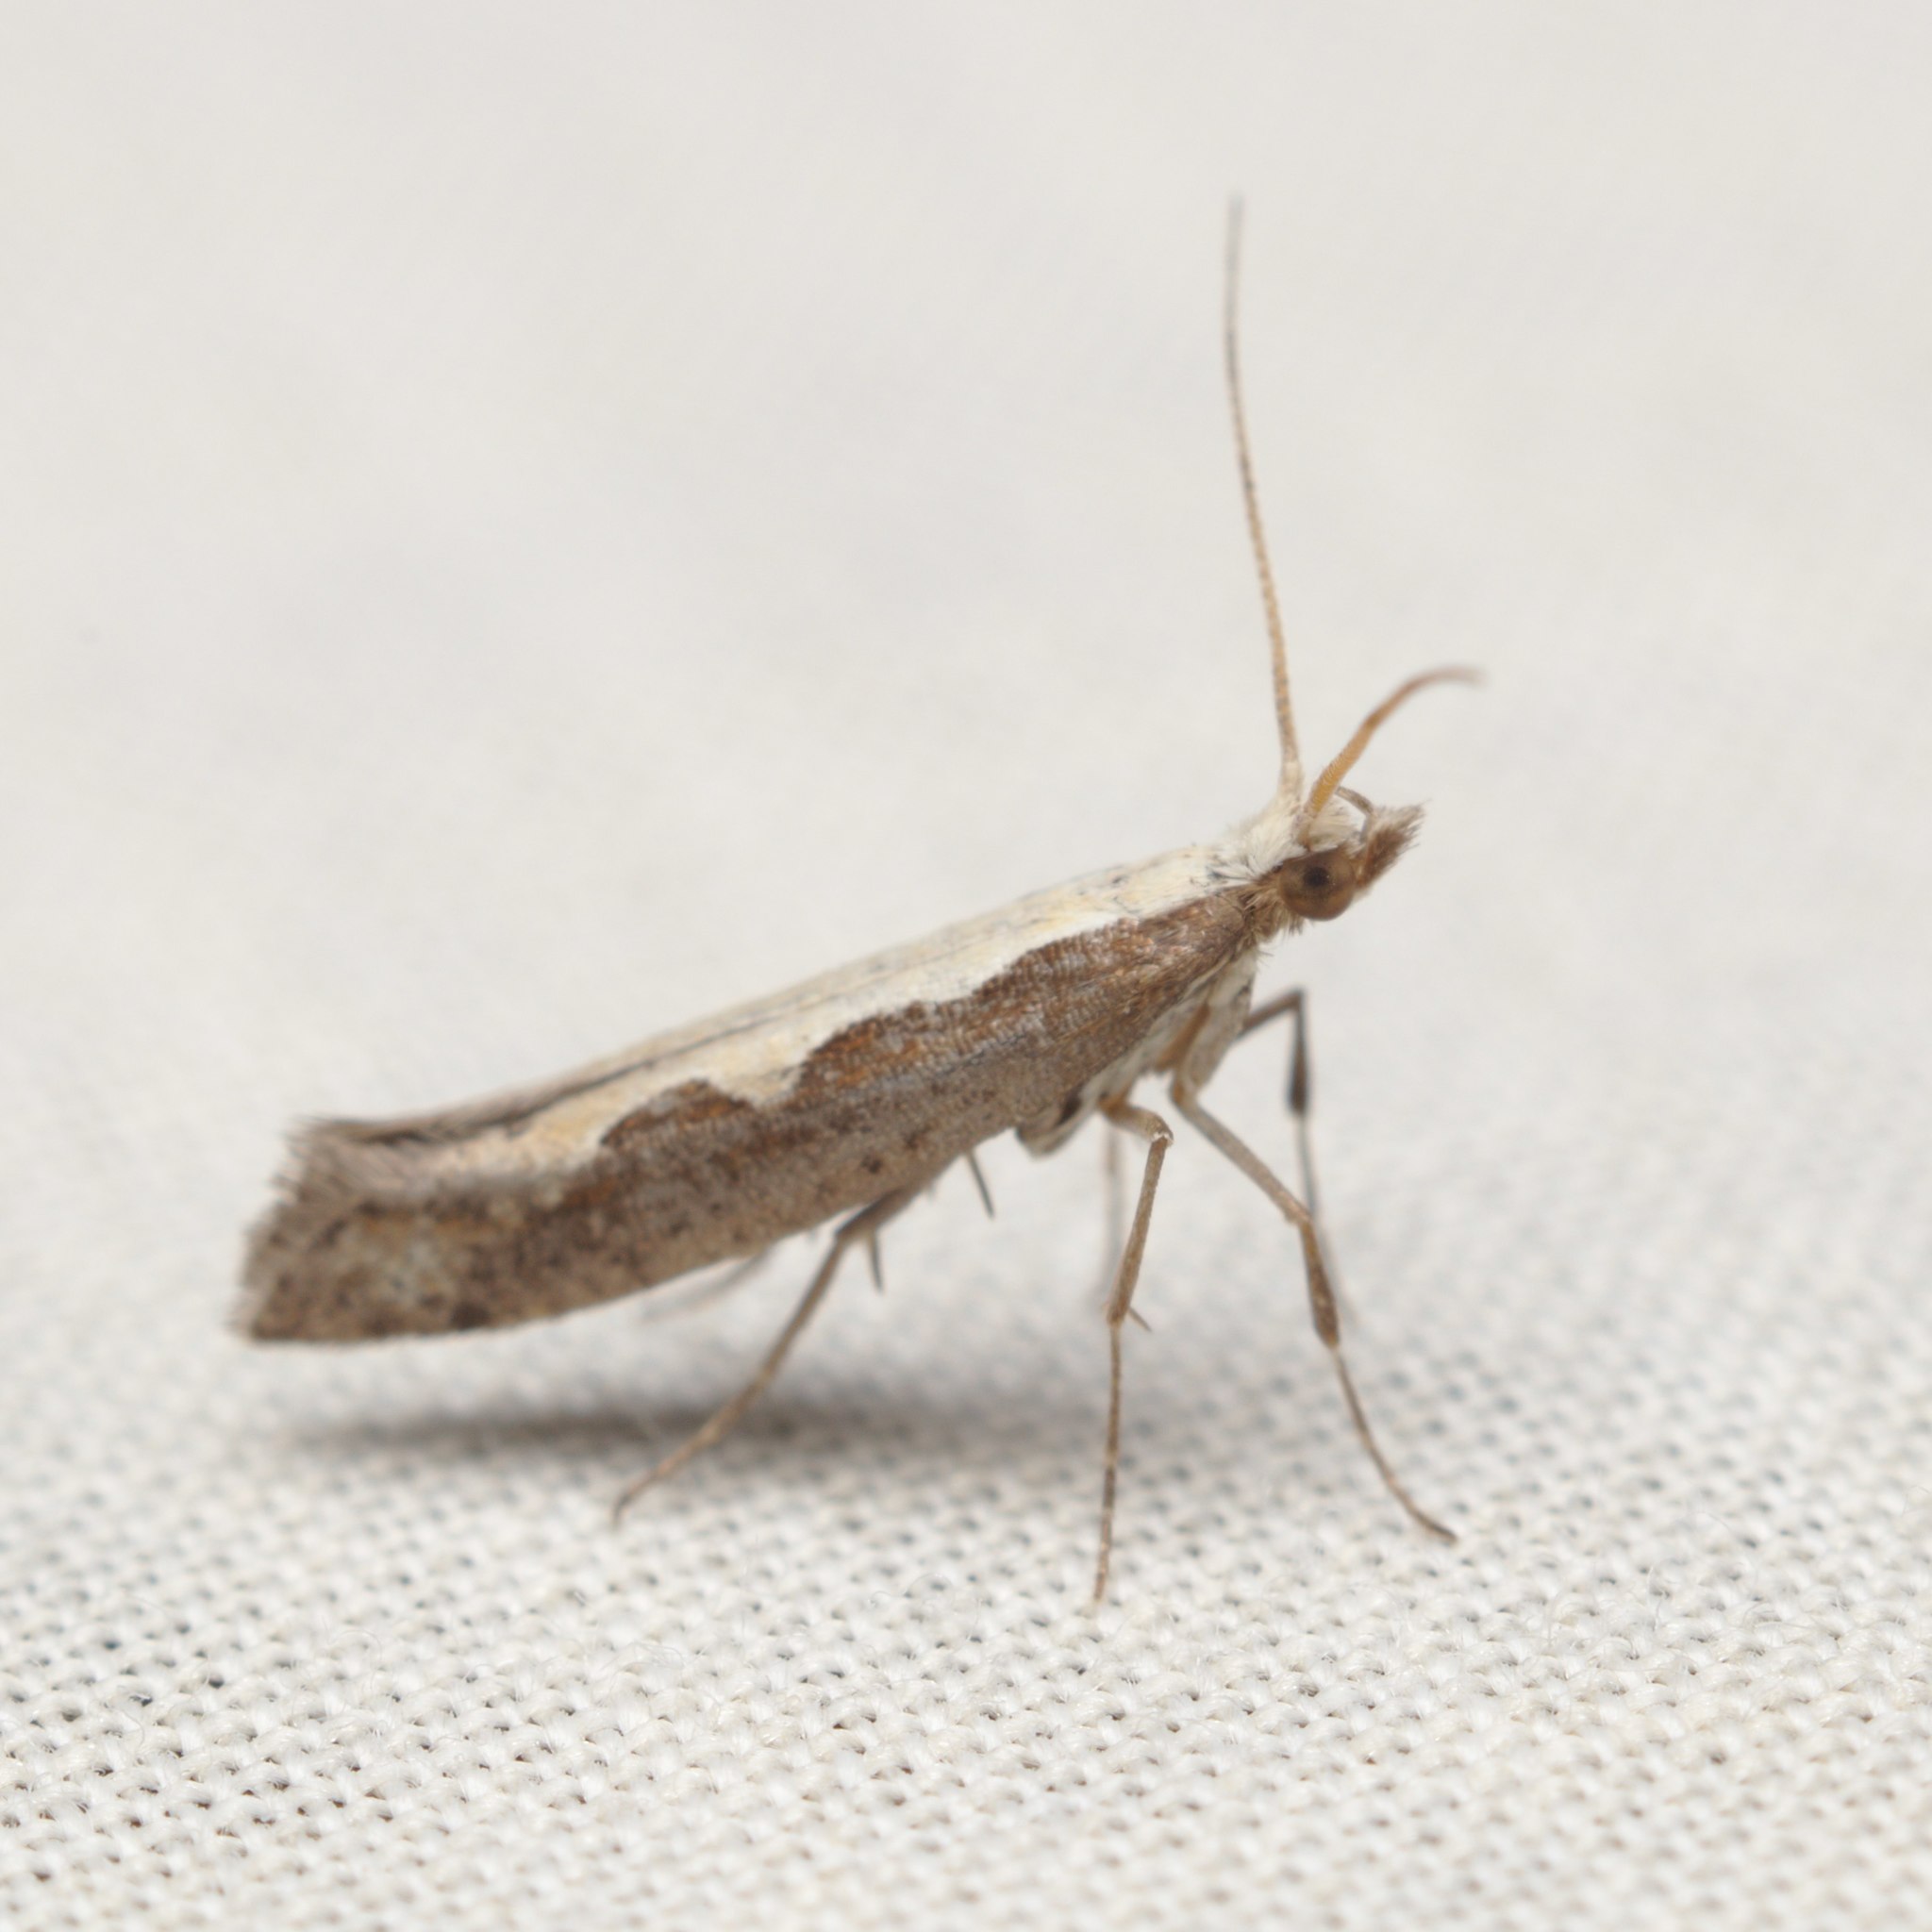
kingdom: Animalia
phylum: Arthropoda
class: Insecta
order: Lepidoptera
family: Plutellidae
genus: Plutella
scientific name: Plutella xylostella
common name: Diamond-back moth
